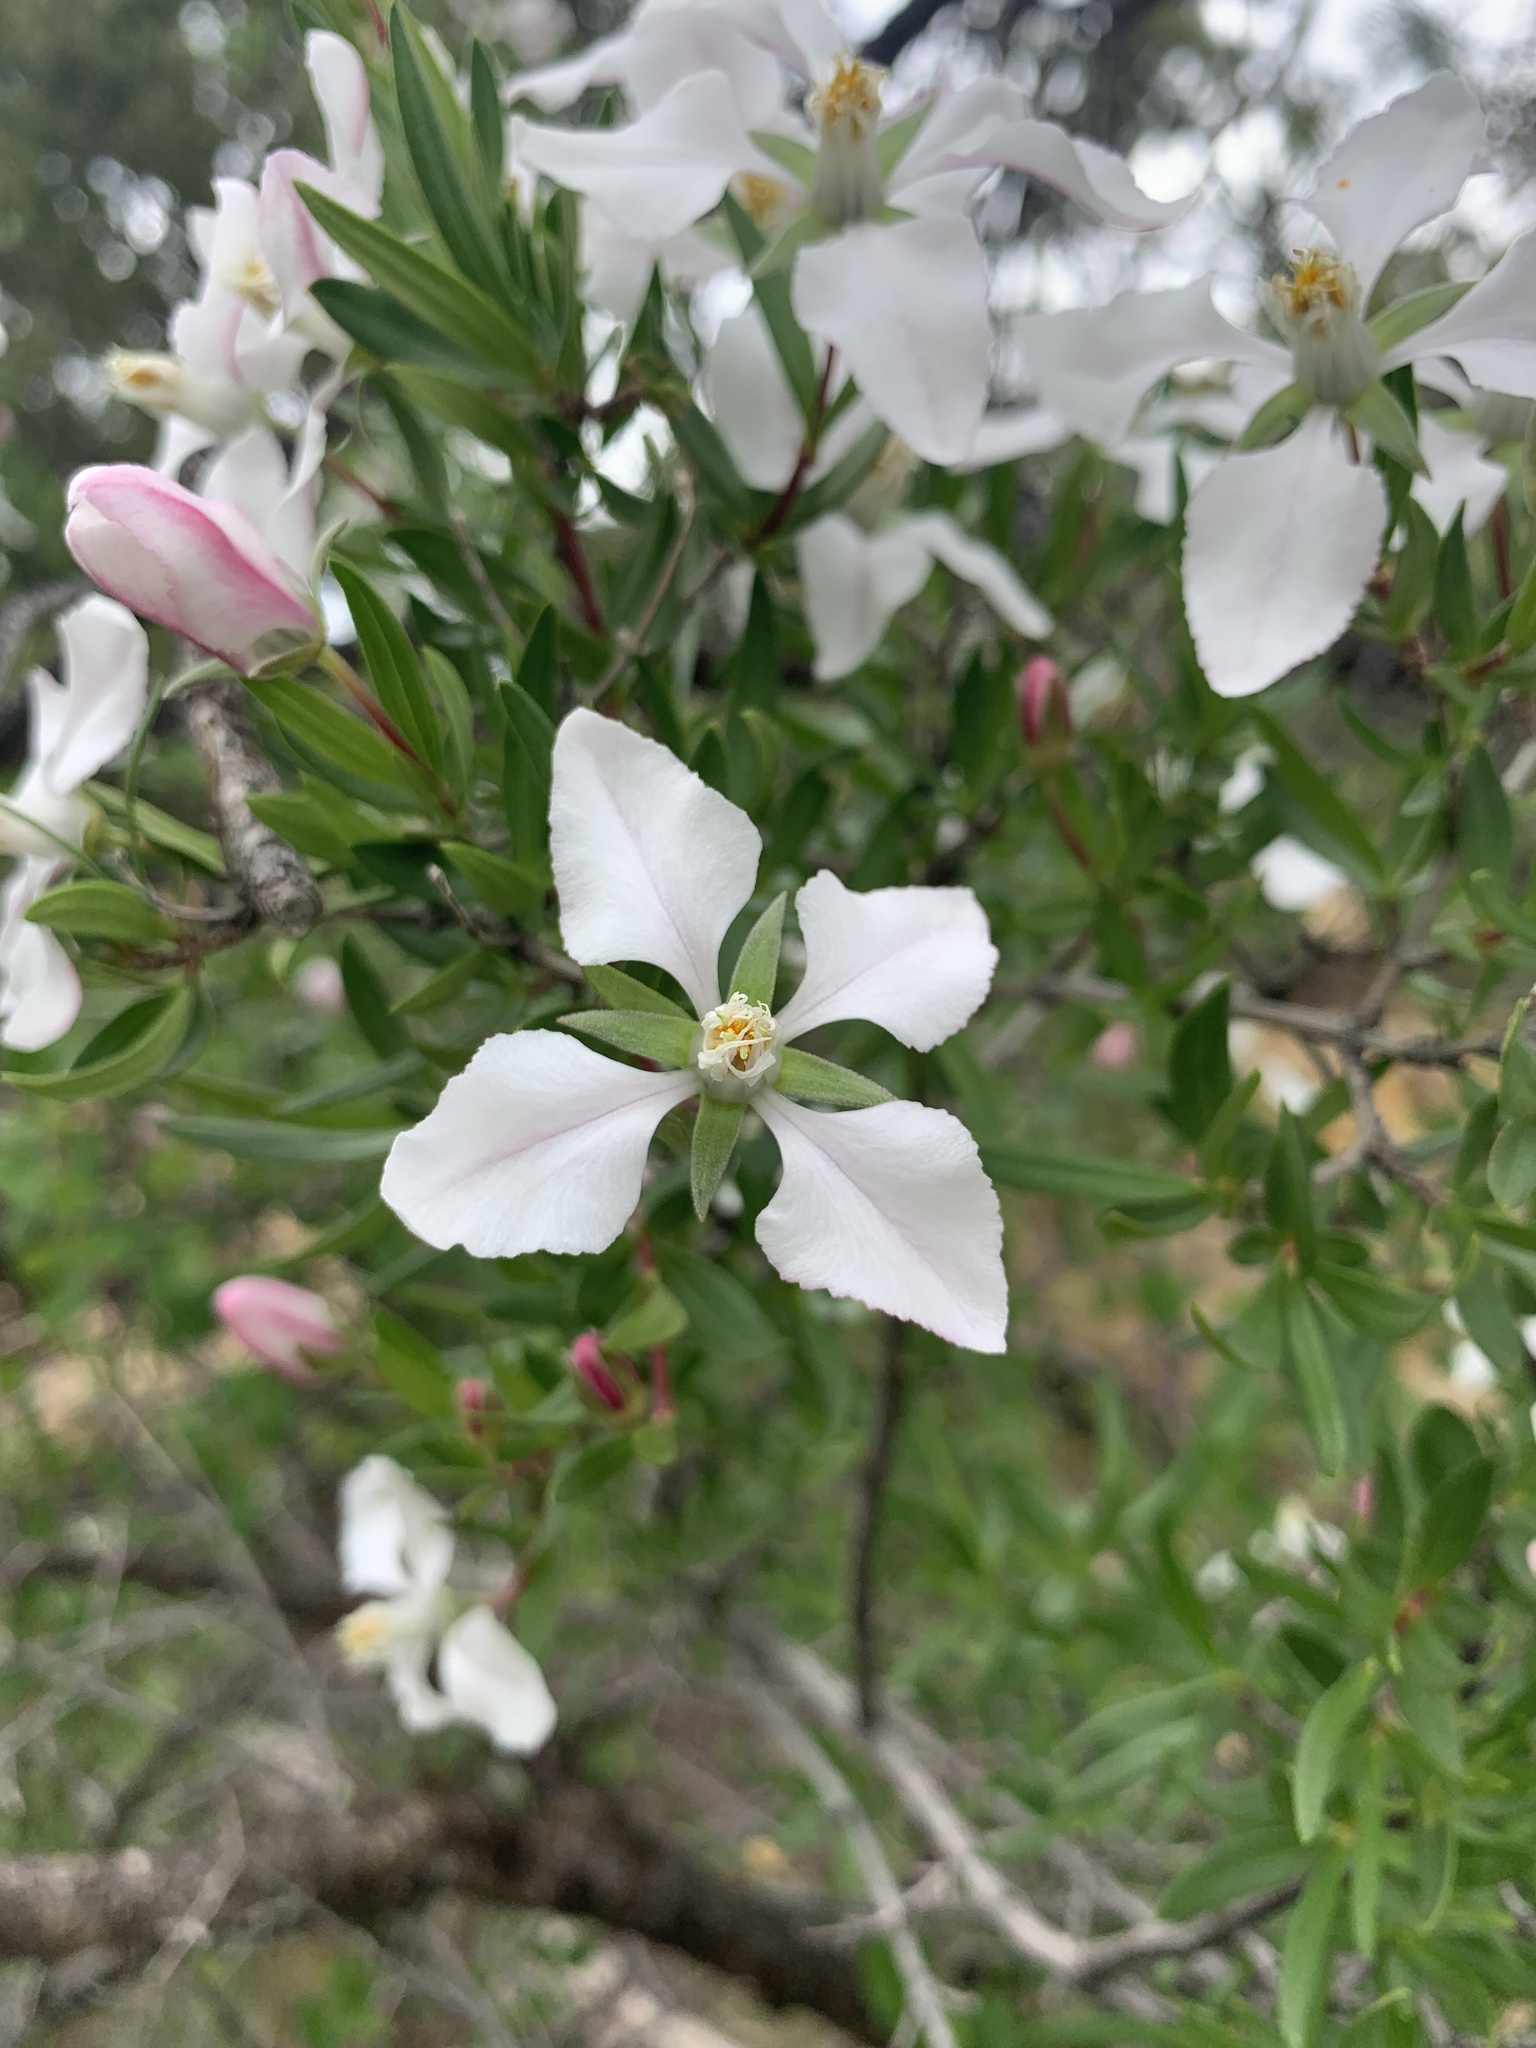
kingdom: Plantae
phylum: Tracheophyta
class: Magnoliopsida
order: Cornales
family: Hydrangeaceae
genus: Fendlera
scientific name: Fendlera rupicola
